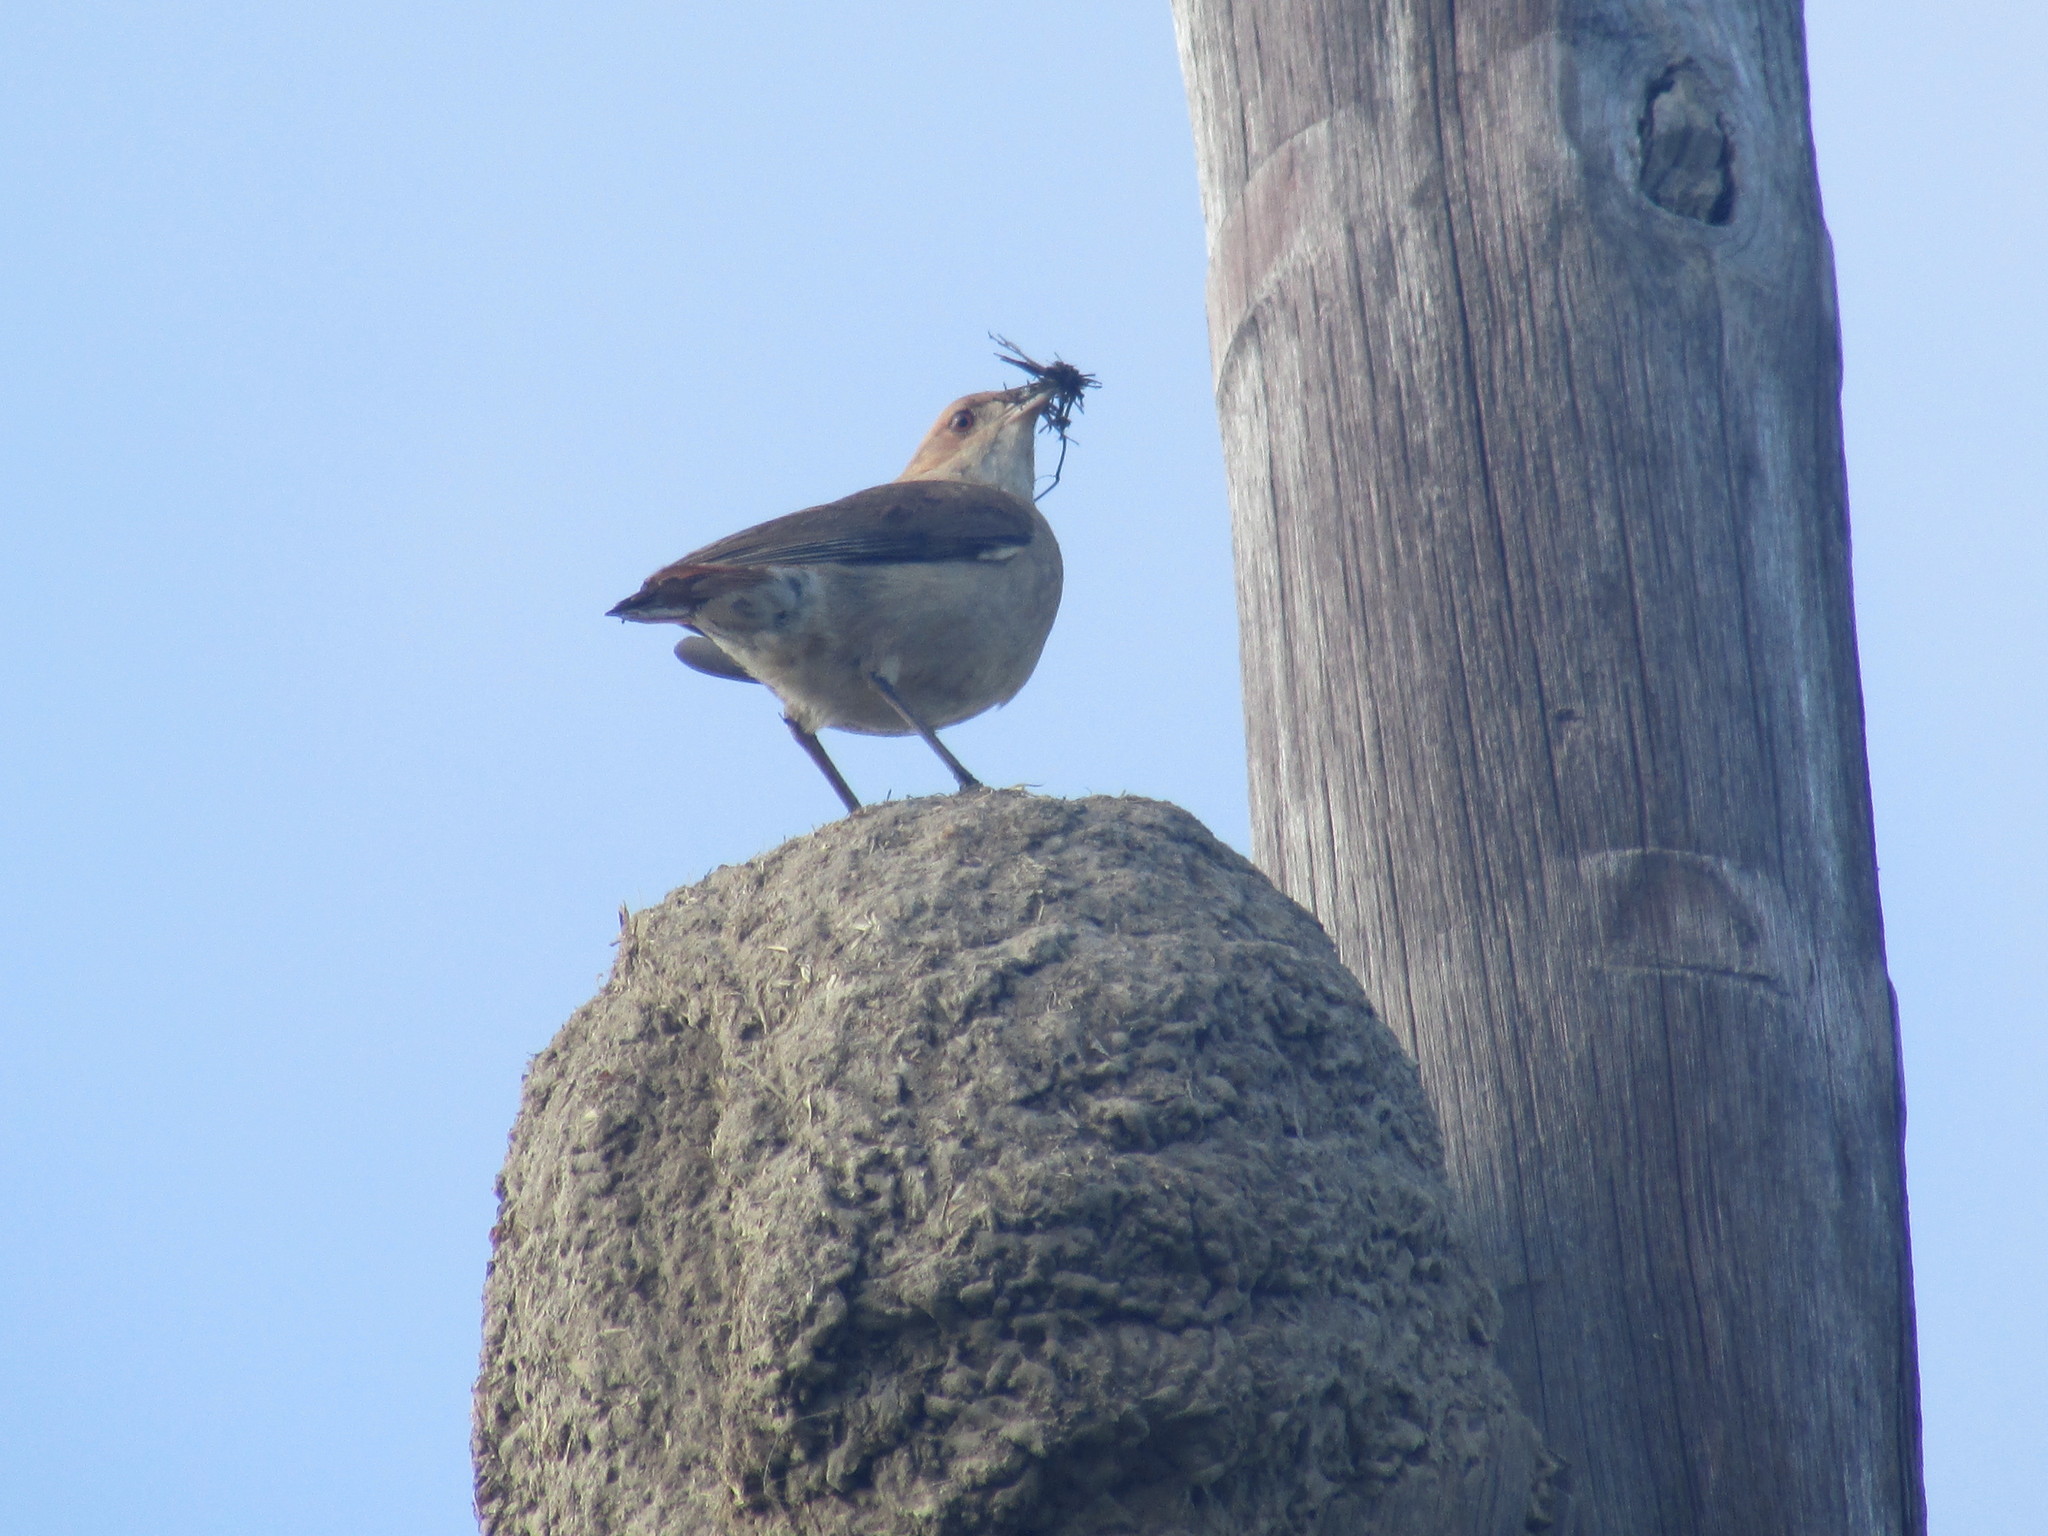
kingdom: Animalia
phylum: Chordata
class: Aves
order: Passeriformes
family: Furnariidae
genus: Furnarius
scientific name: Furnarius rufus
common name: Rufous hornero
